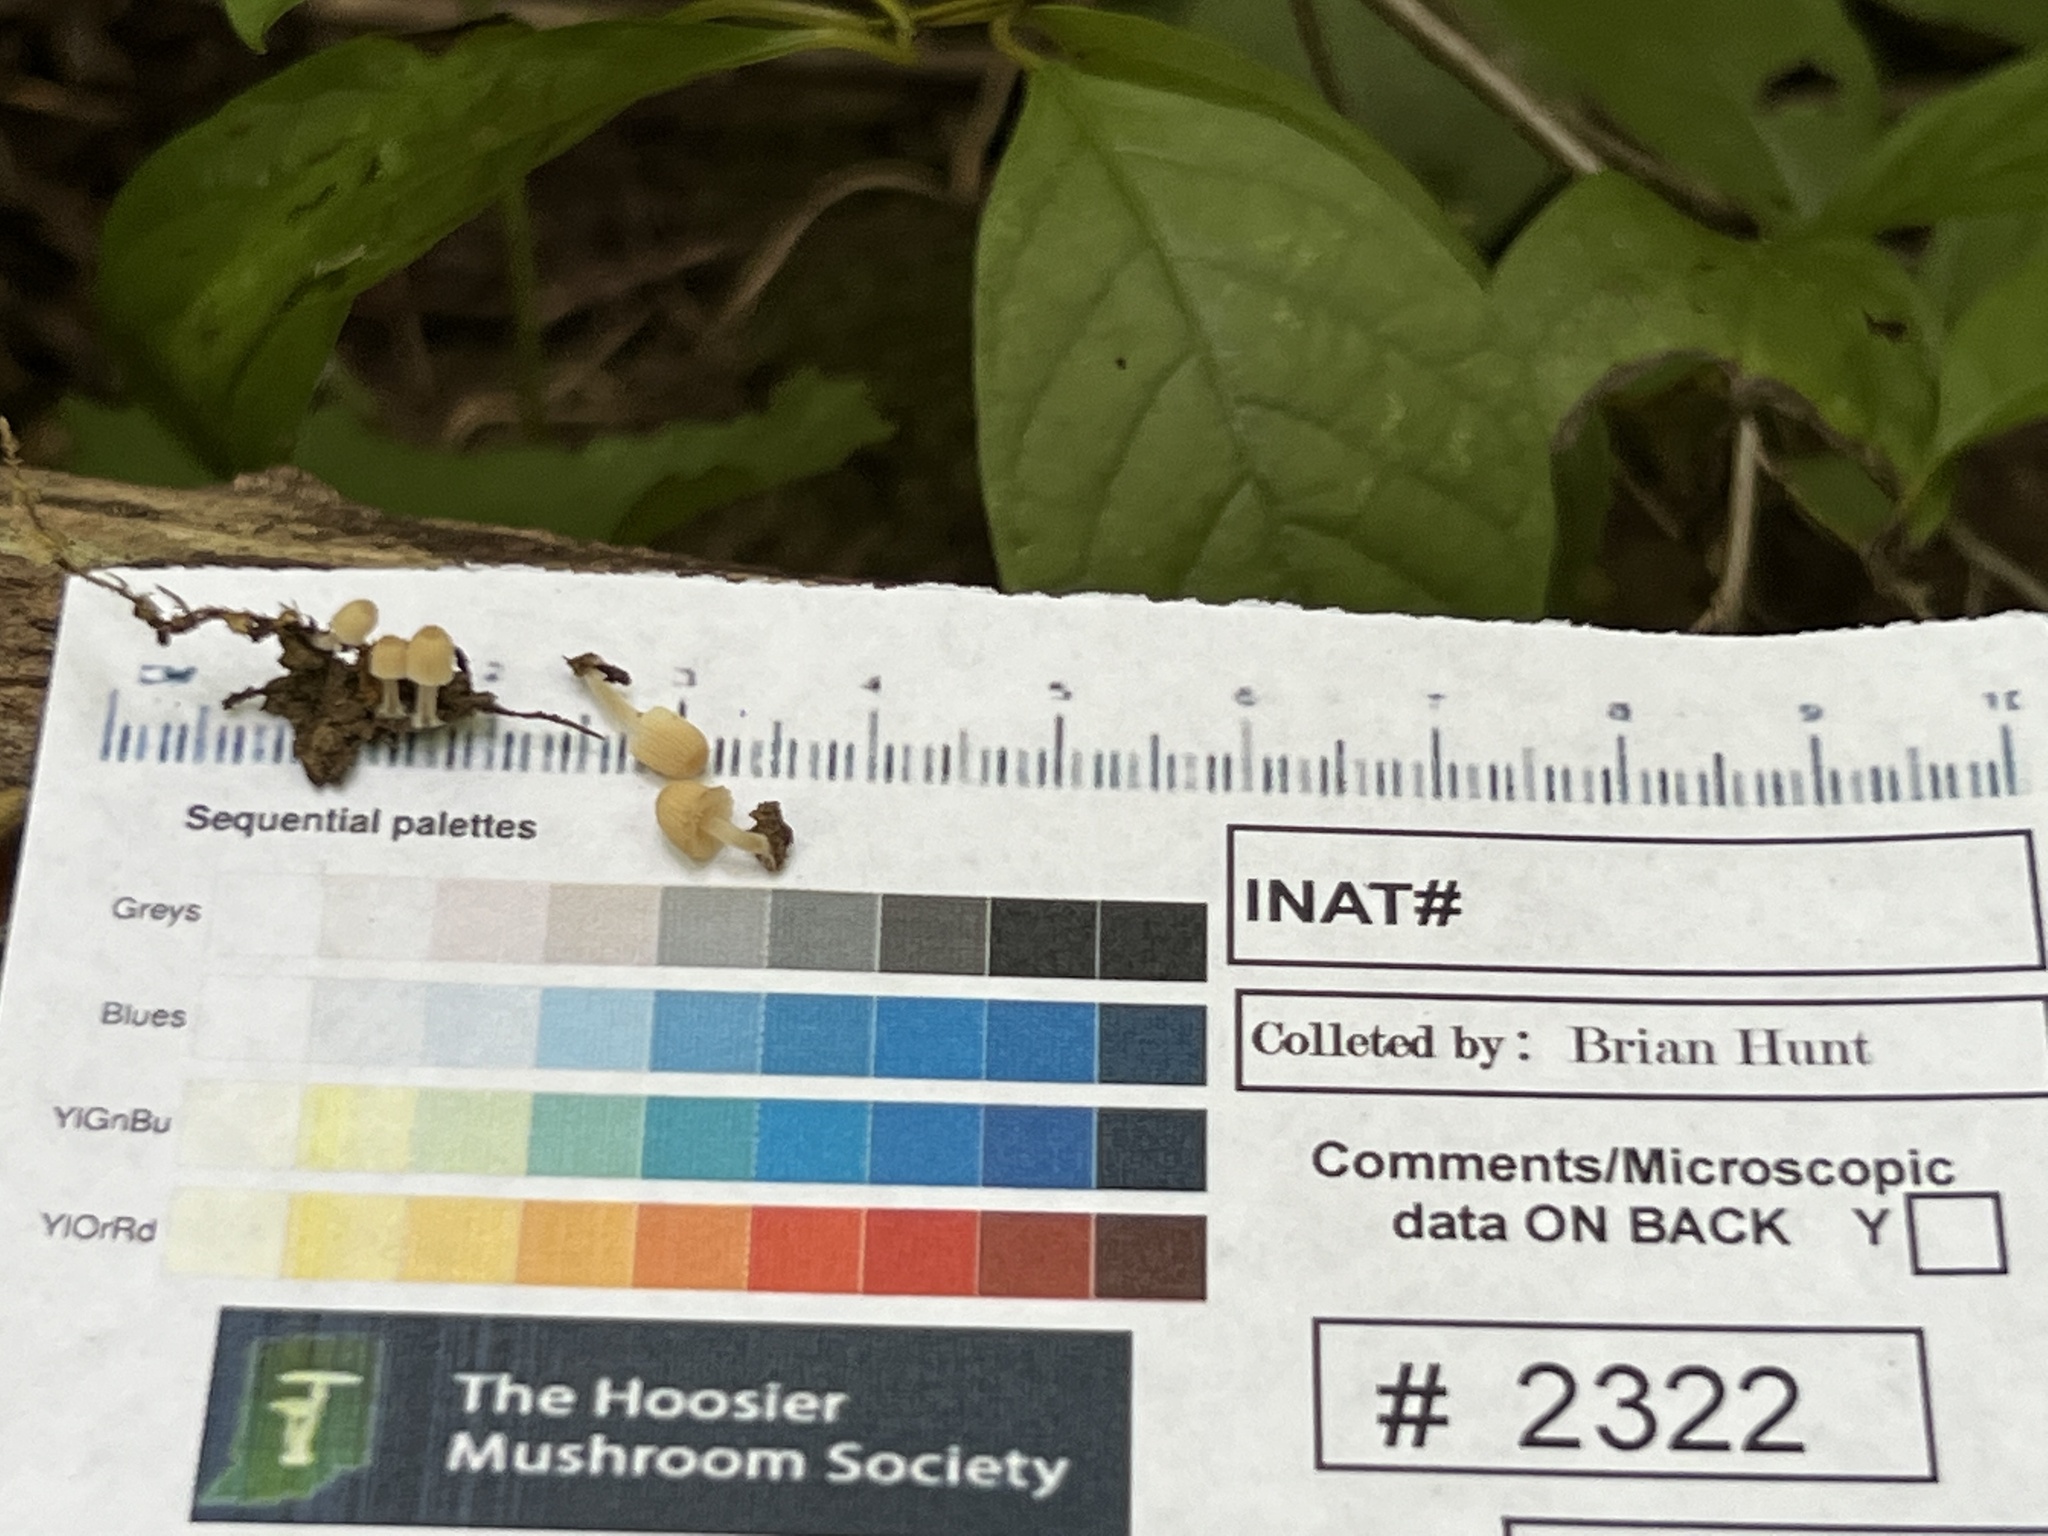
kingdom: Fungi
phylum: Basidiomycota
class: Agaricomycetes
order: Agaricales
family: Psathyrellaceae
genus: Coprinellus
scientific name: Coprinellus disseminatus
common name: Fairies' bonnets
